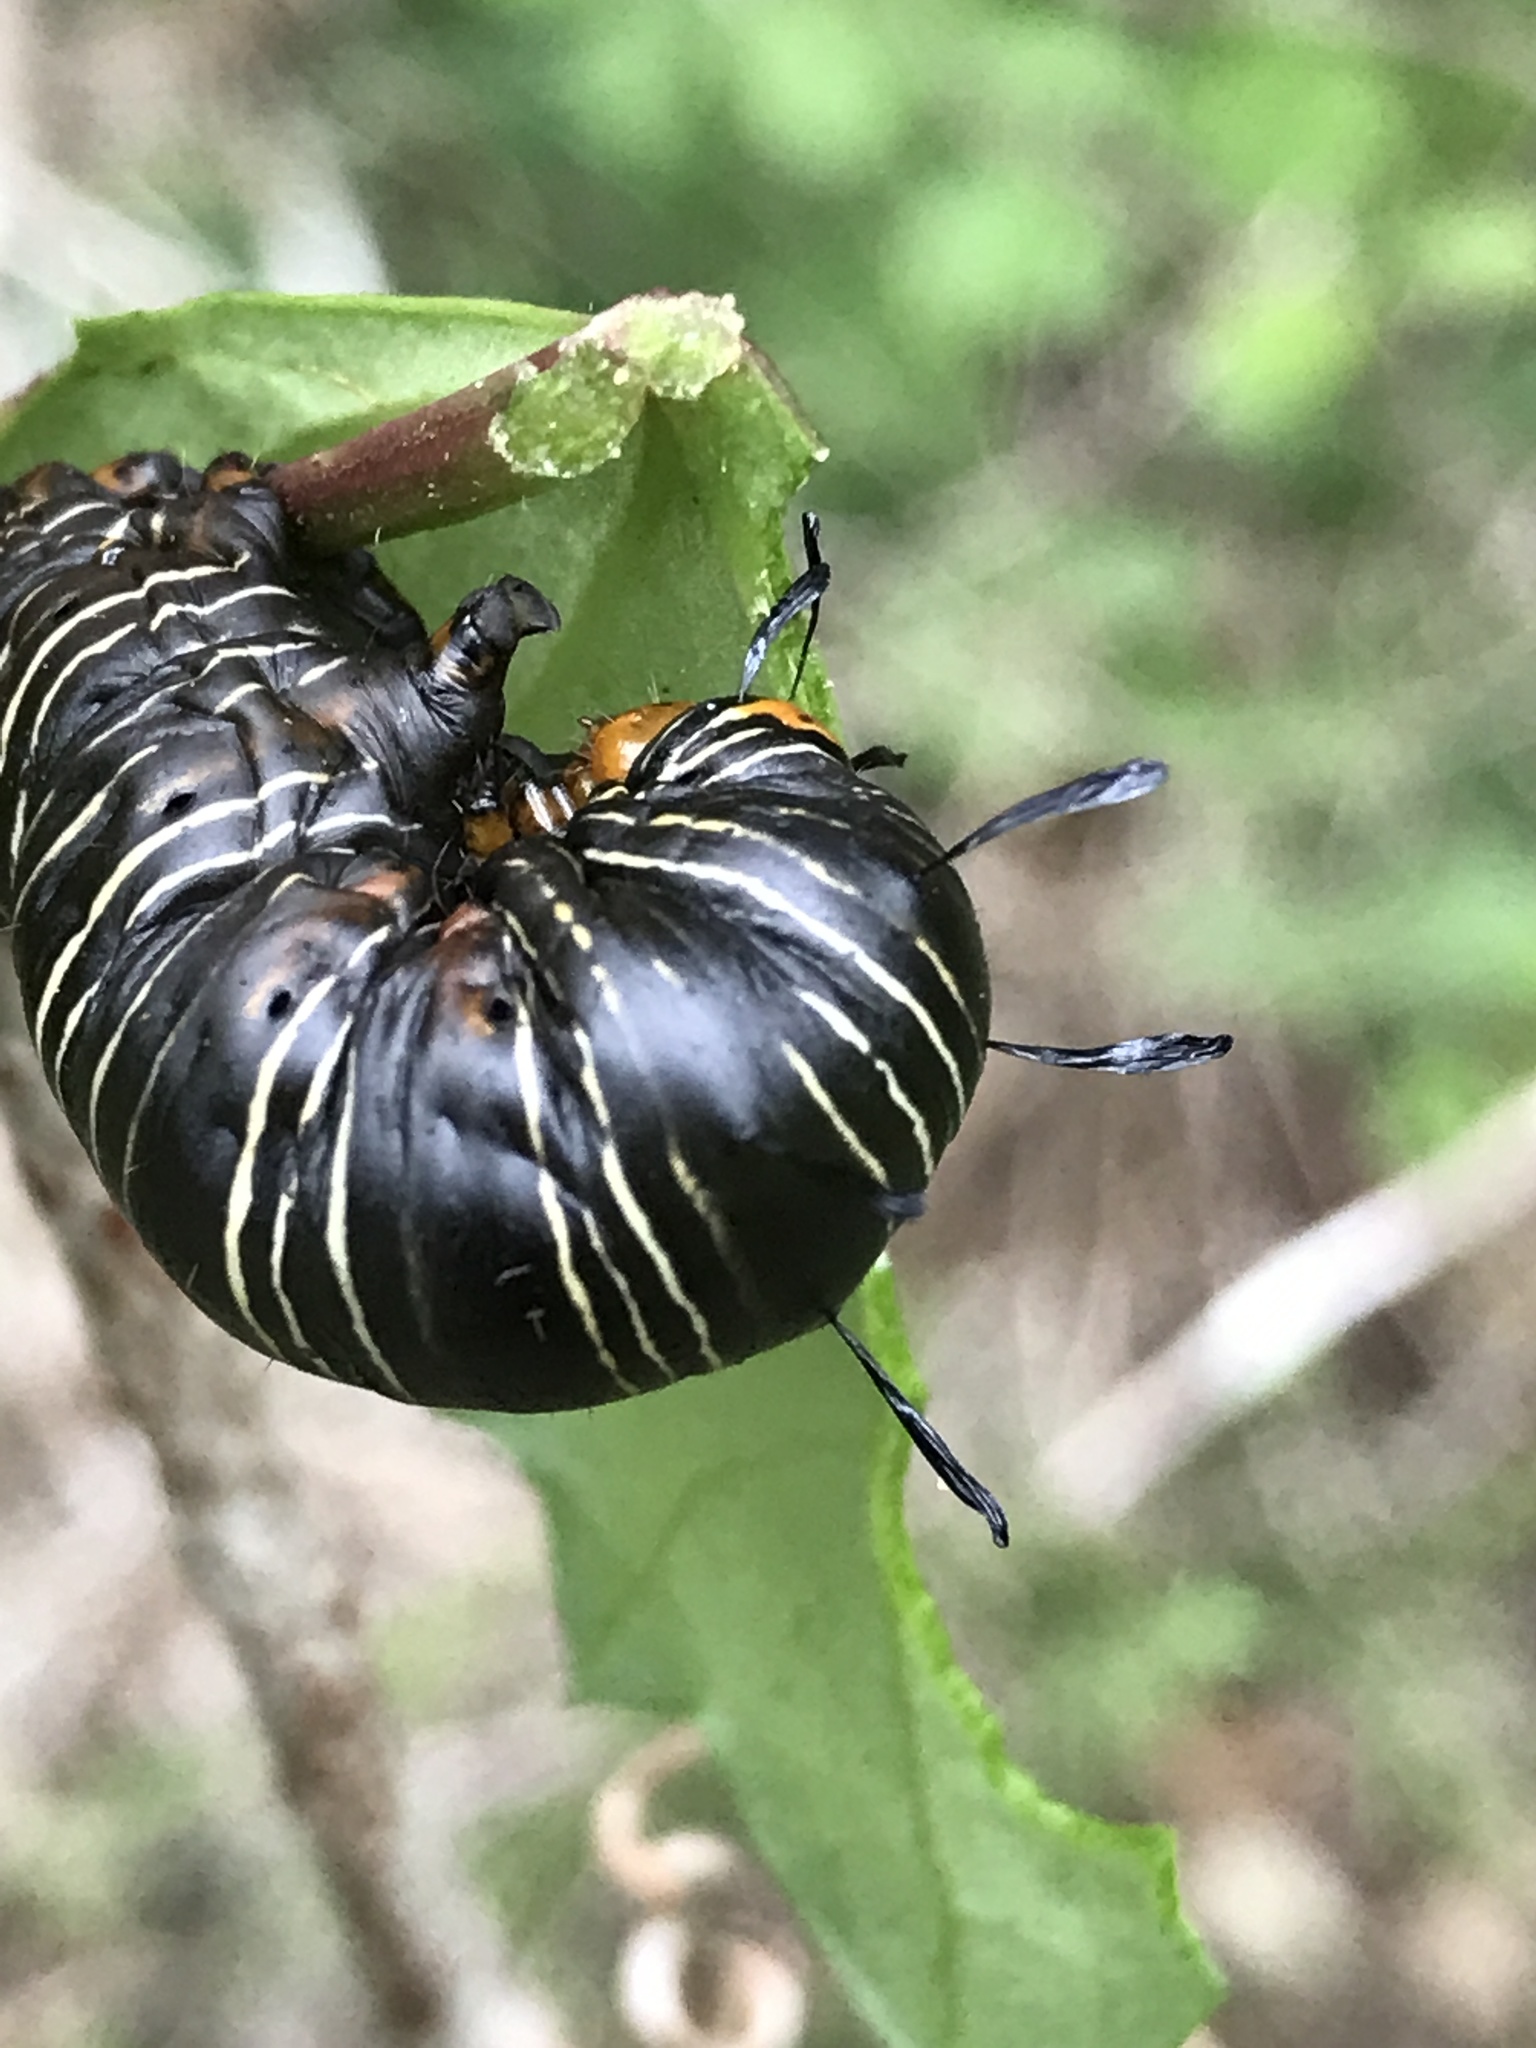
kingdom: Animalia
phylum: Arthropoda
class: Insecta
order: Lepidoptera
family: Noctuidae
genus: Xerociris
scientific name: Xerociris wilsonii
